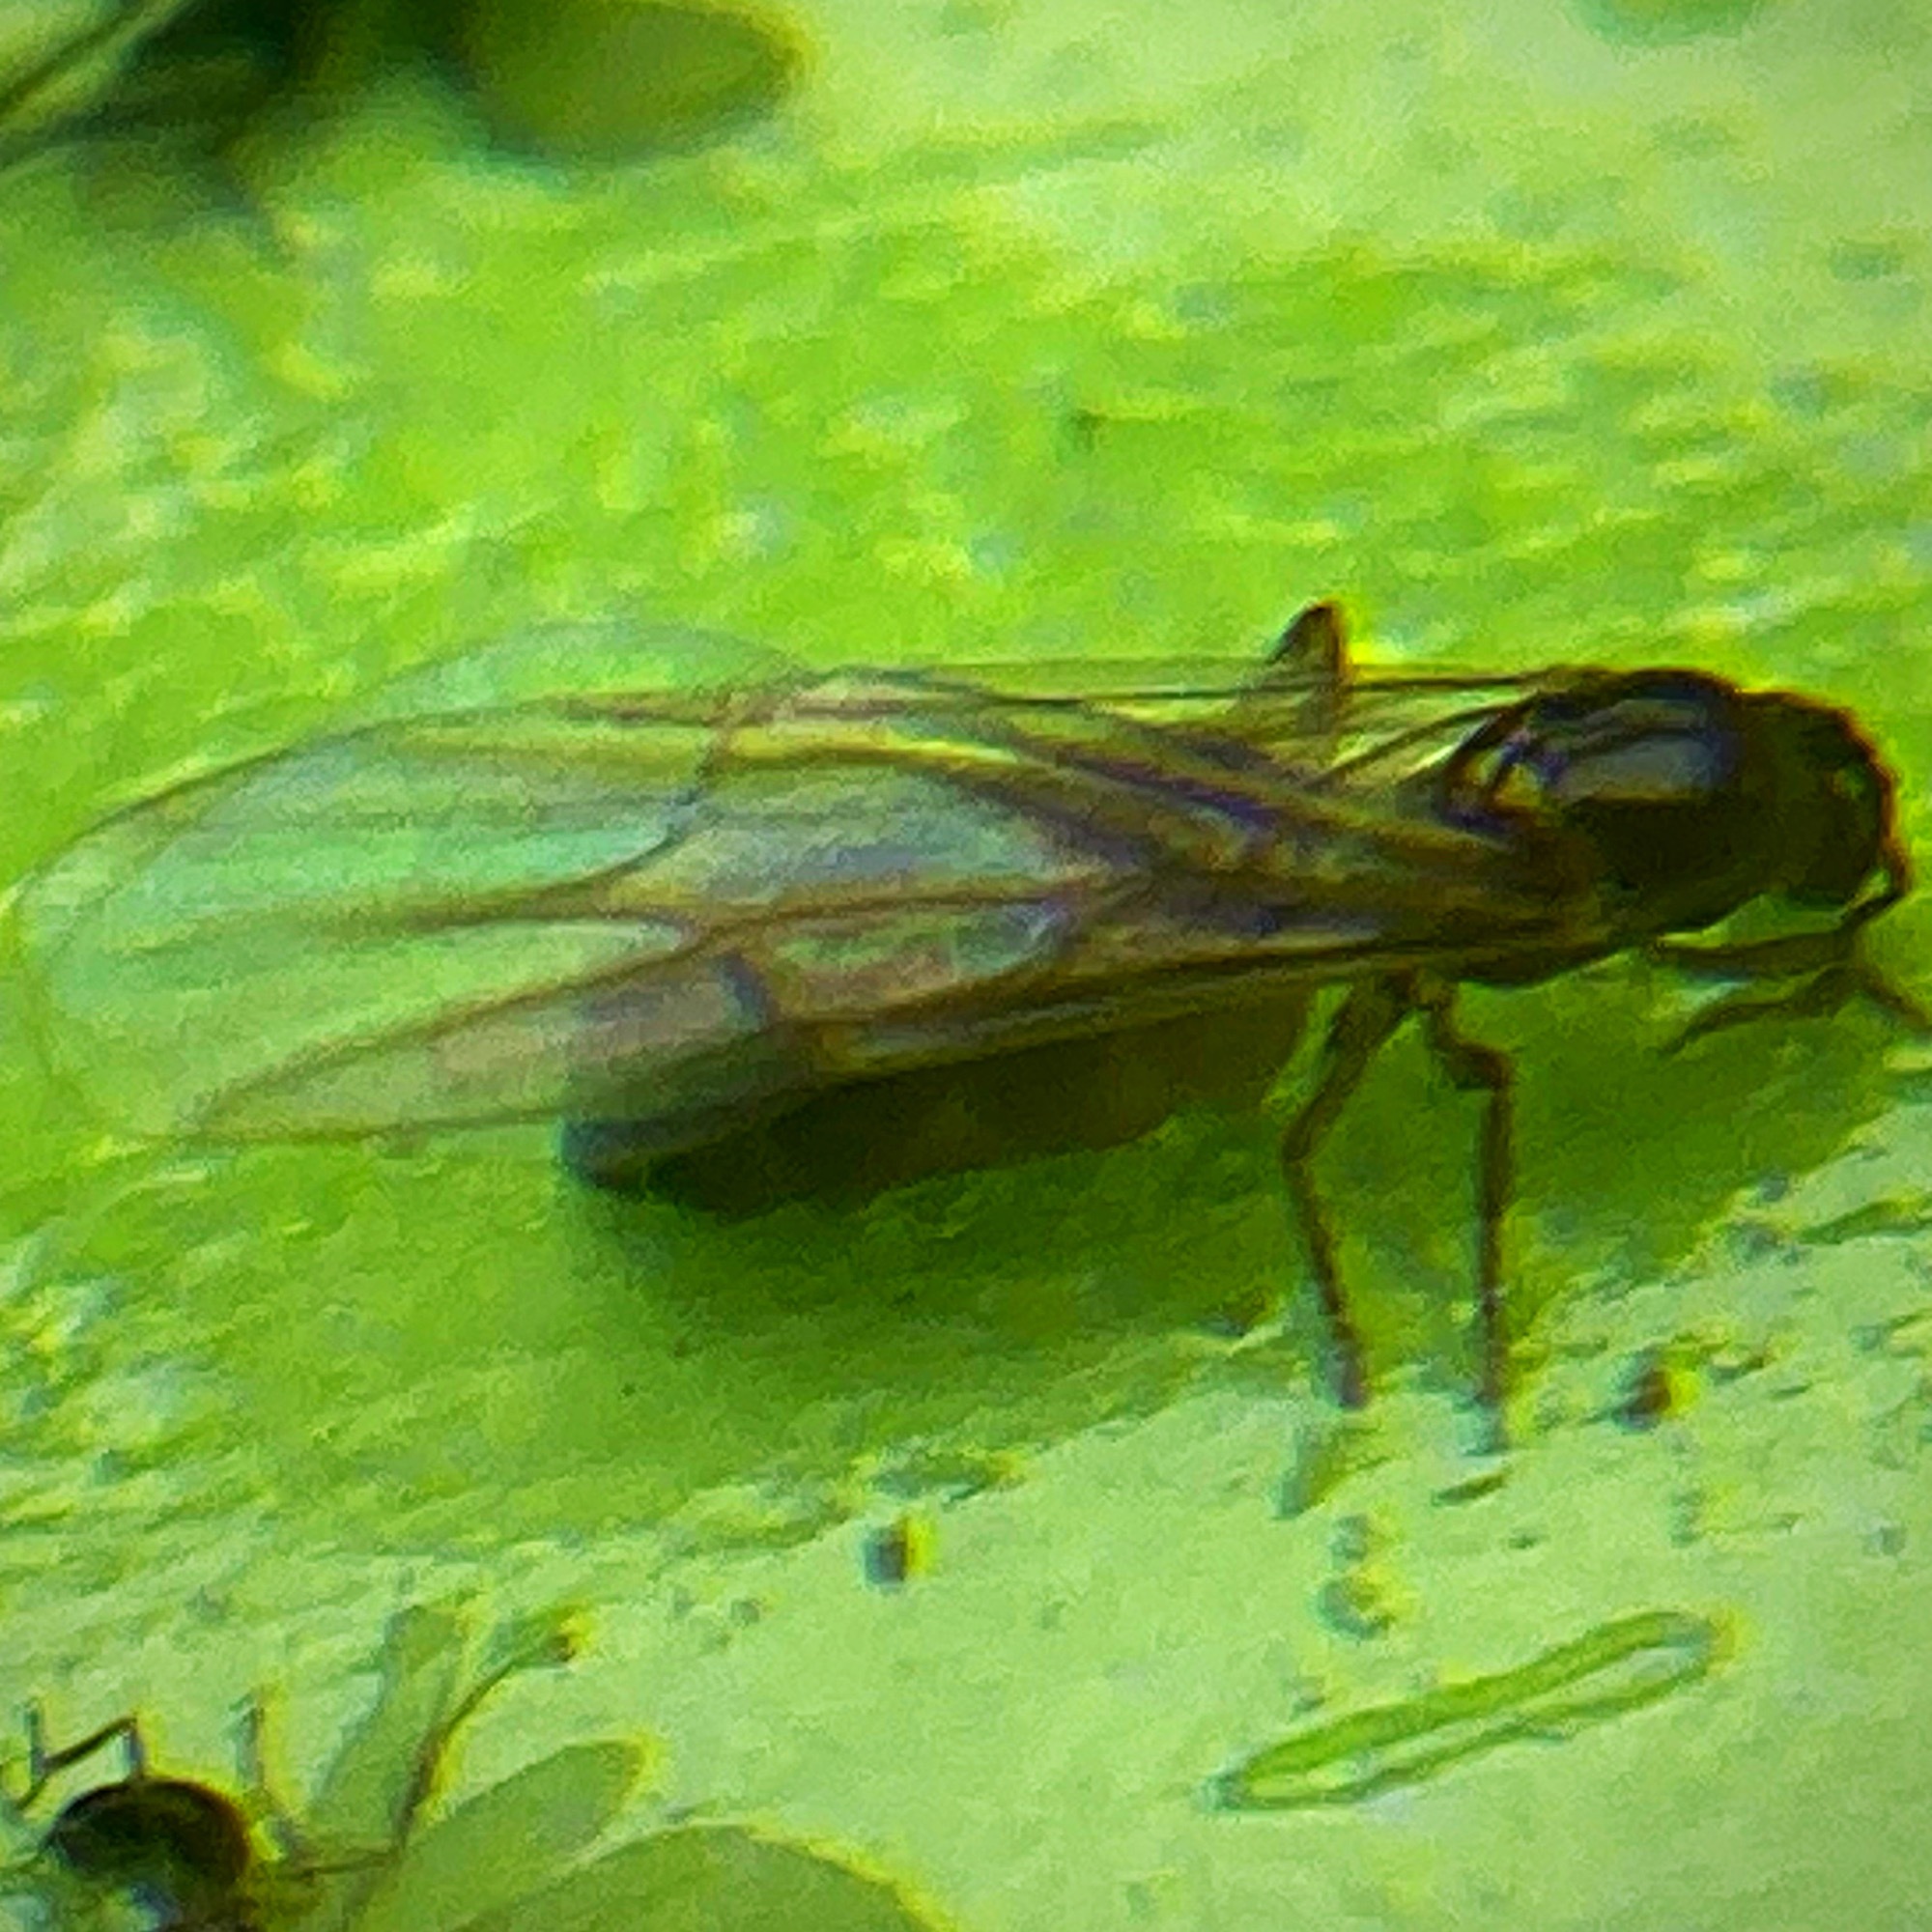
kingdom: Animalia
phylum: Arthropoda
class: Insecta
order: Hymenoptera
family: Formicidae
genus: Brachymyrmex
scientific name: Brachymyrmex patagonicus
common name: Dark rover ant
